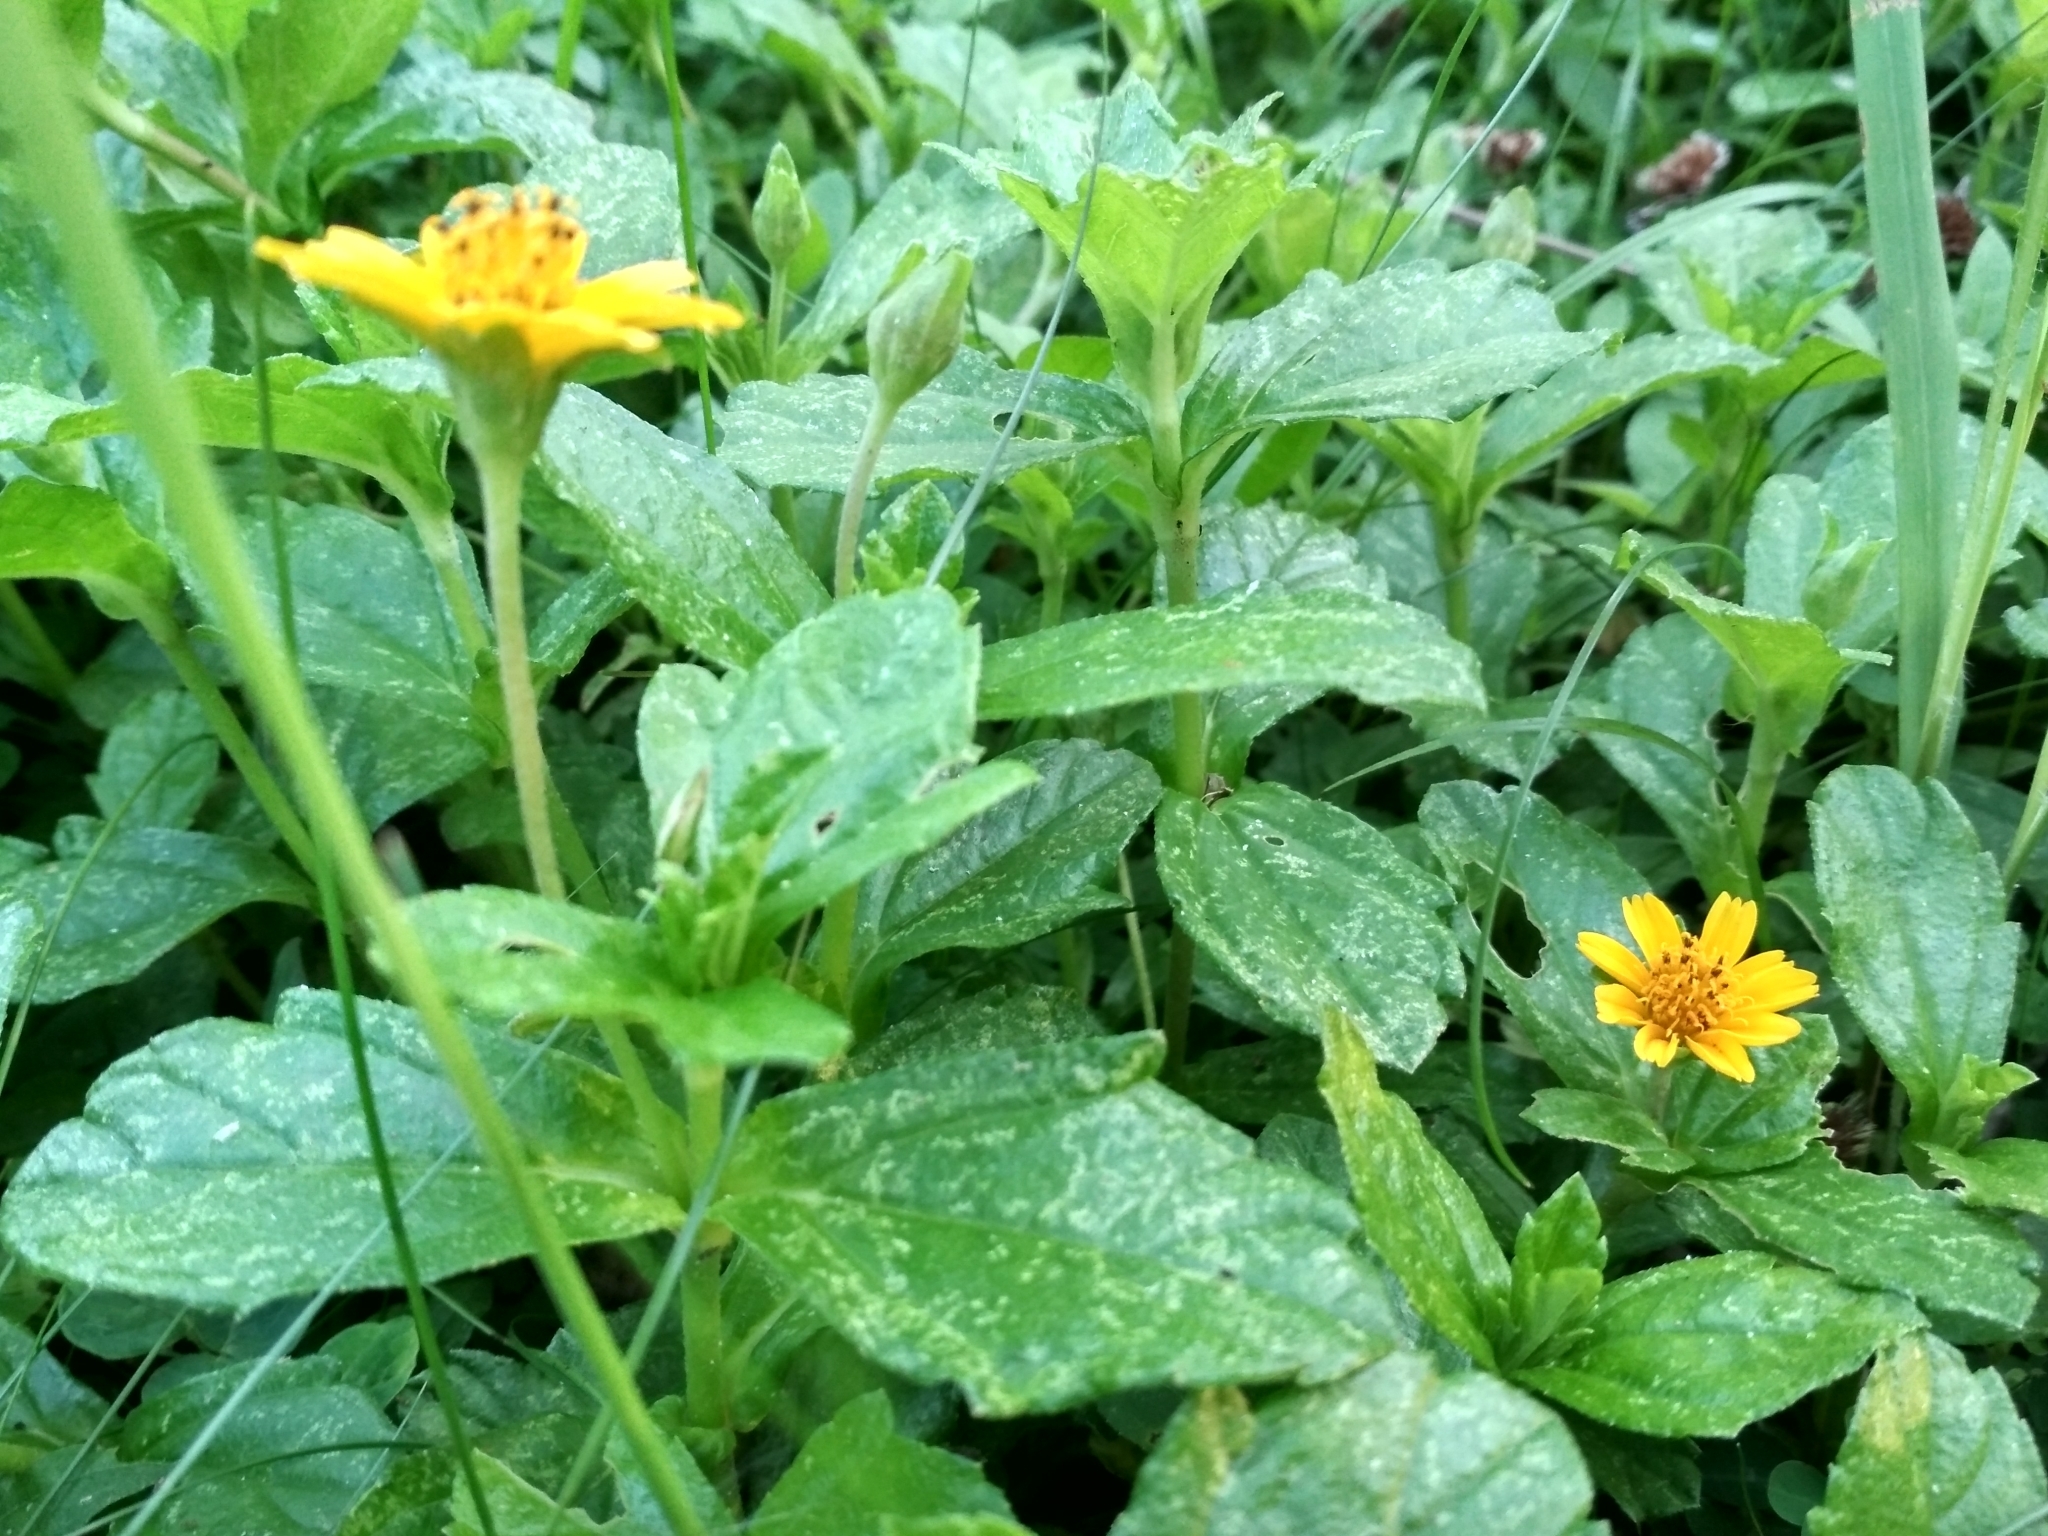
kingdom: Plantae
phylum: Tracheophyta
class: Magnoliopsida
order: Asterales
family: Asteraceae
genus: Sphagneticola
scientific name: Sphagneticola trilobata
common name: Bay biscayne creeping-oxeye
